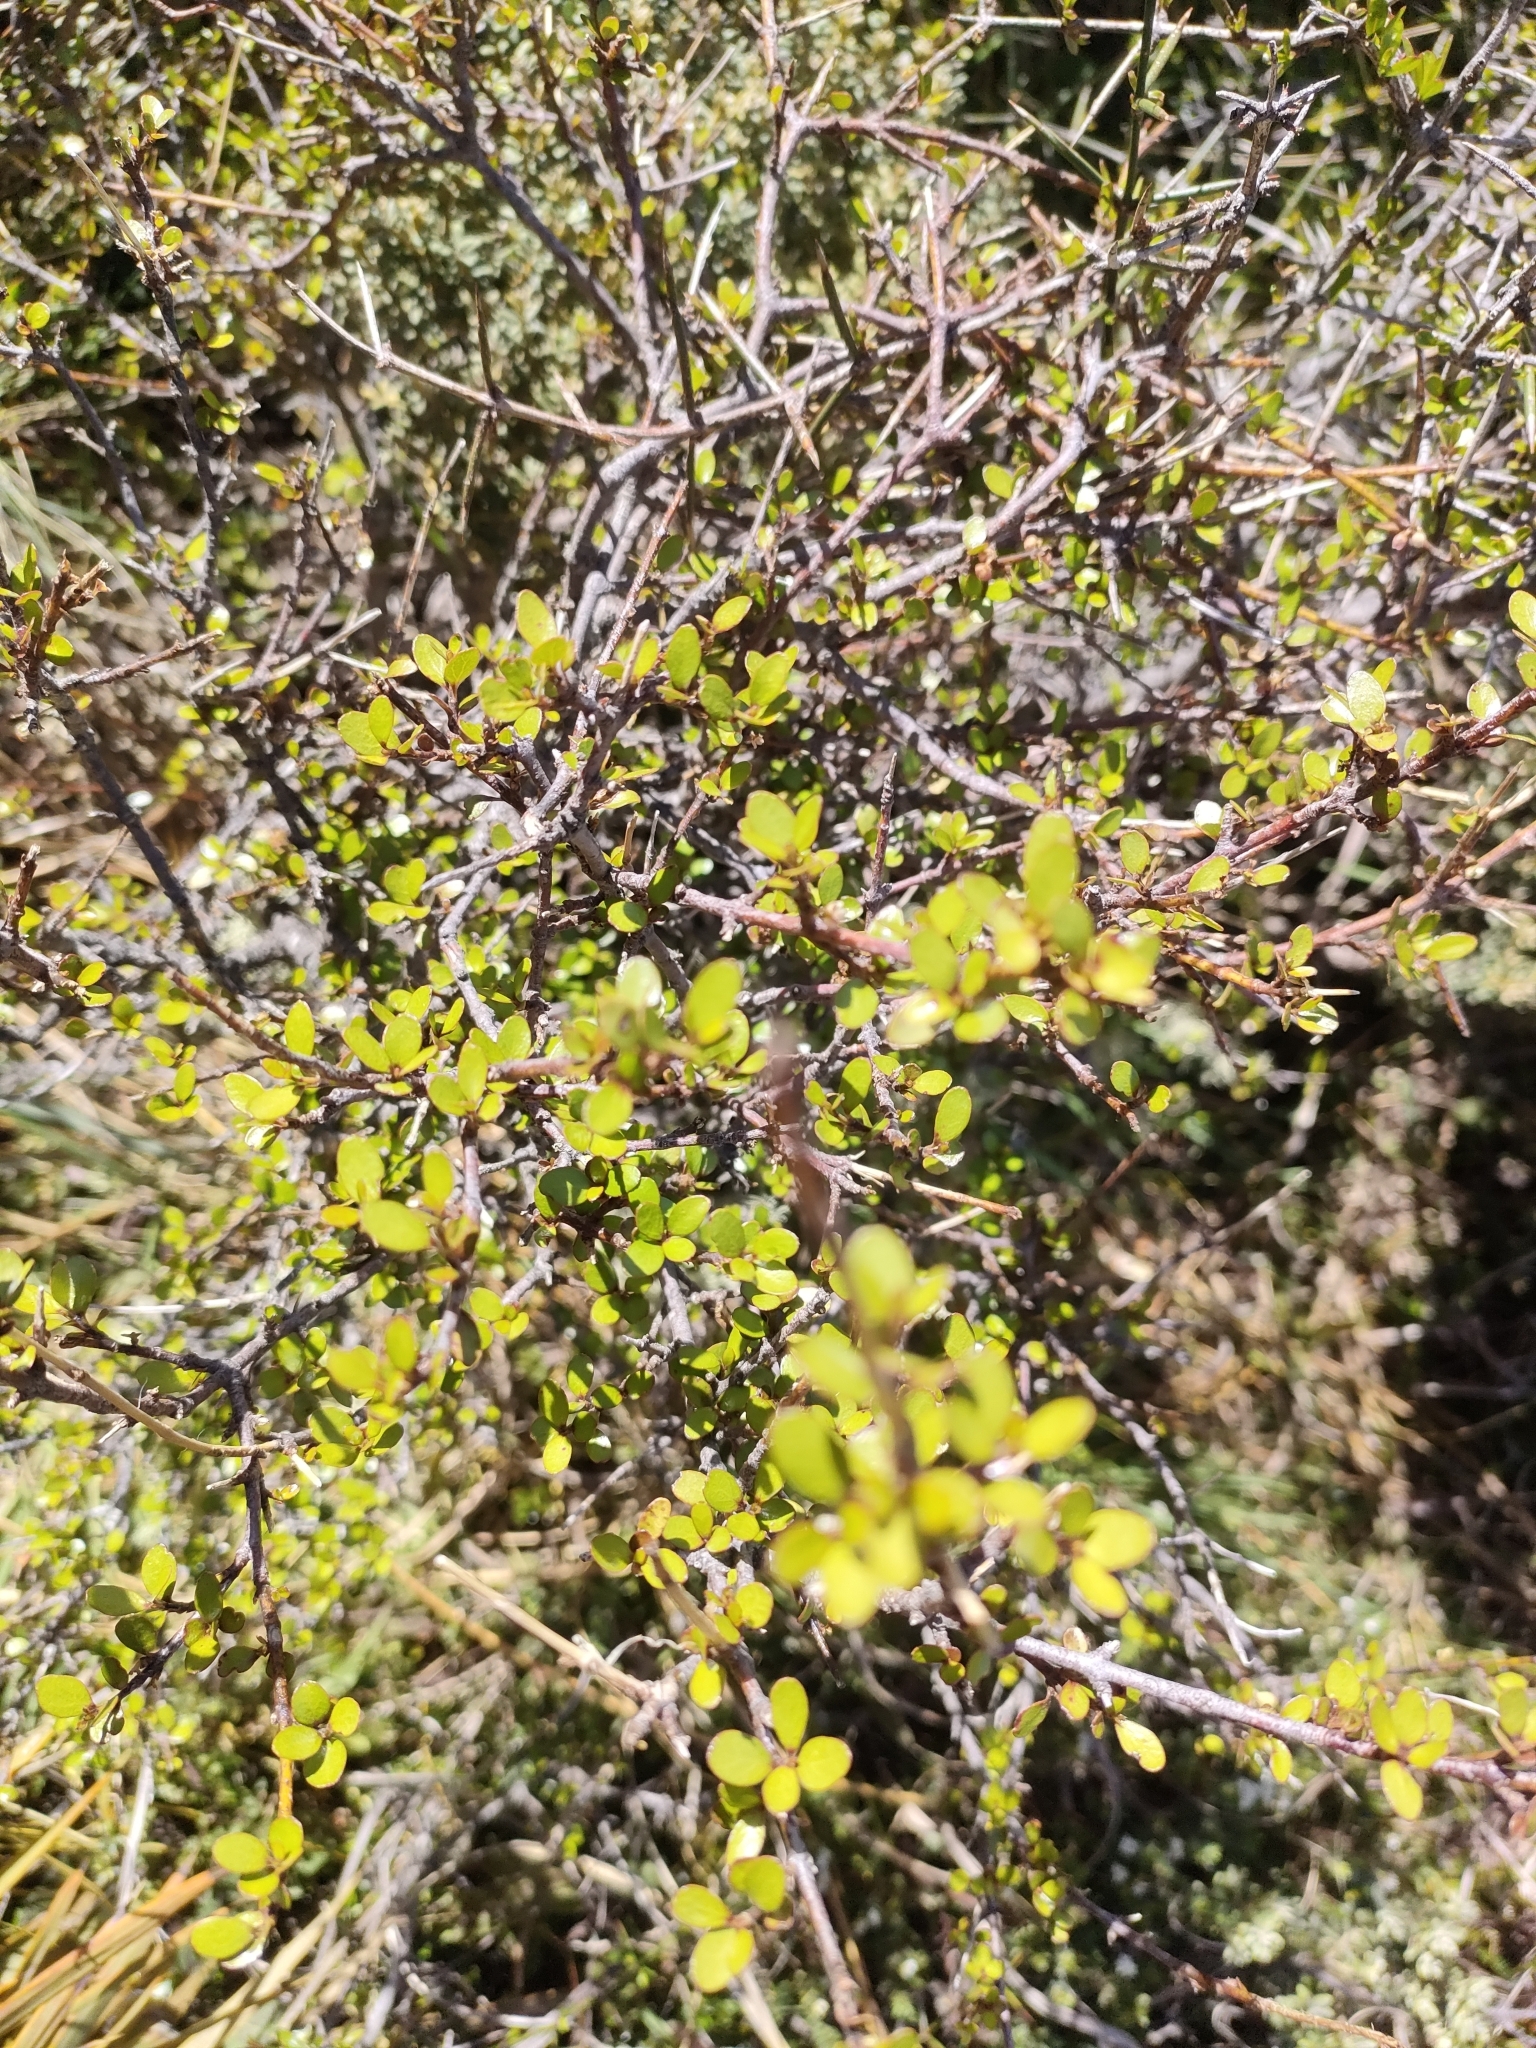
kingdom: Plantae
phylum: Tracheophyta
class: Magnoliopsida
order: Oxalidales
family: Elaeocarpaceae
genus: Aristotelia
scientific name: Aristotelia fruticosa
